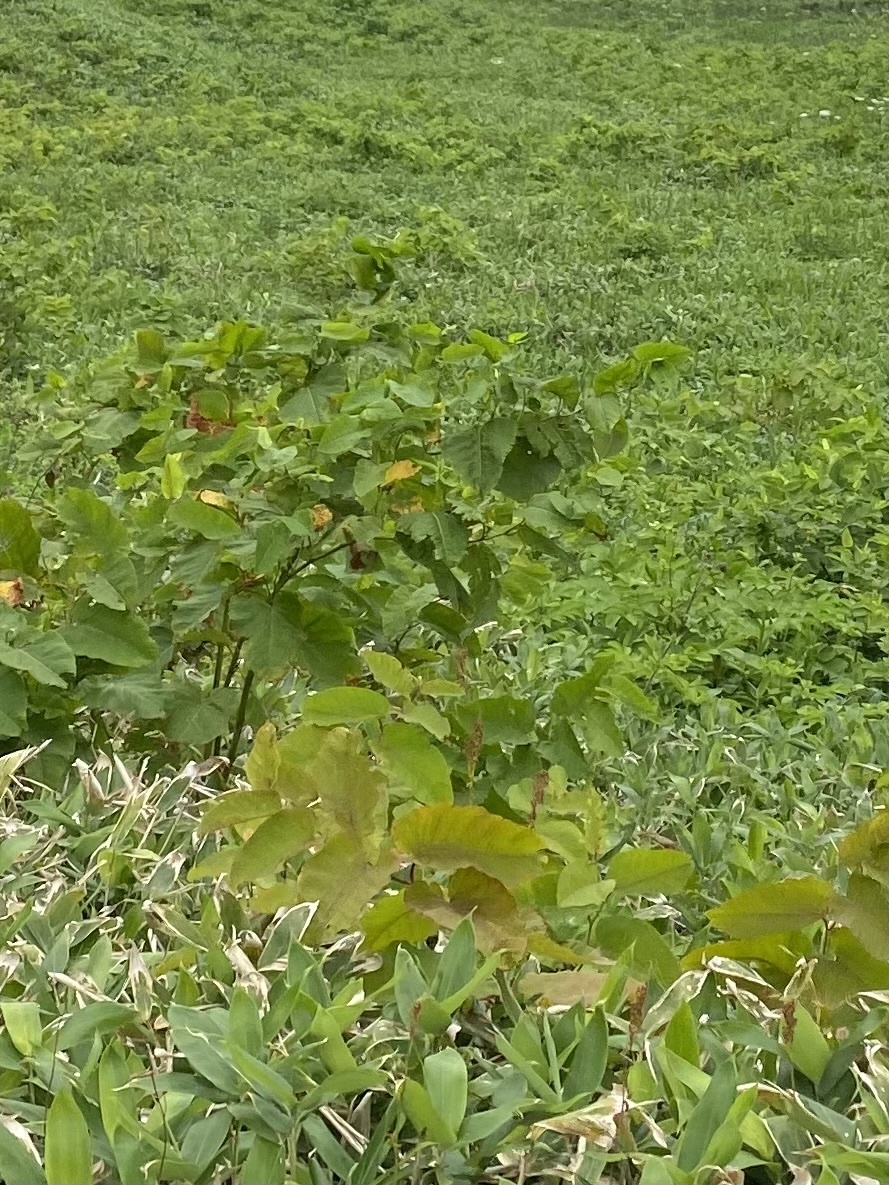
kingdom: Plantae
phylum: Tracheophyta
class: Magnoliopsida
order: Caryophyllales
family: Polygonaceae
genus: Reynoutria
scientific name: Reynoutria sachalinensis
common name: Giant knotweed
